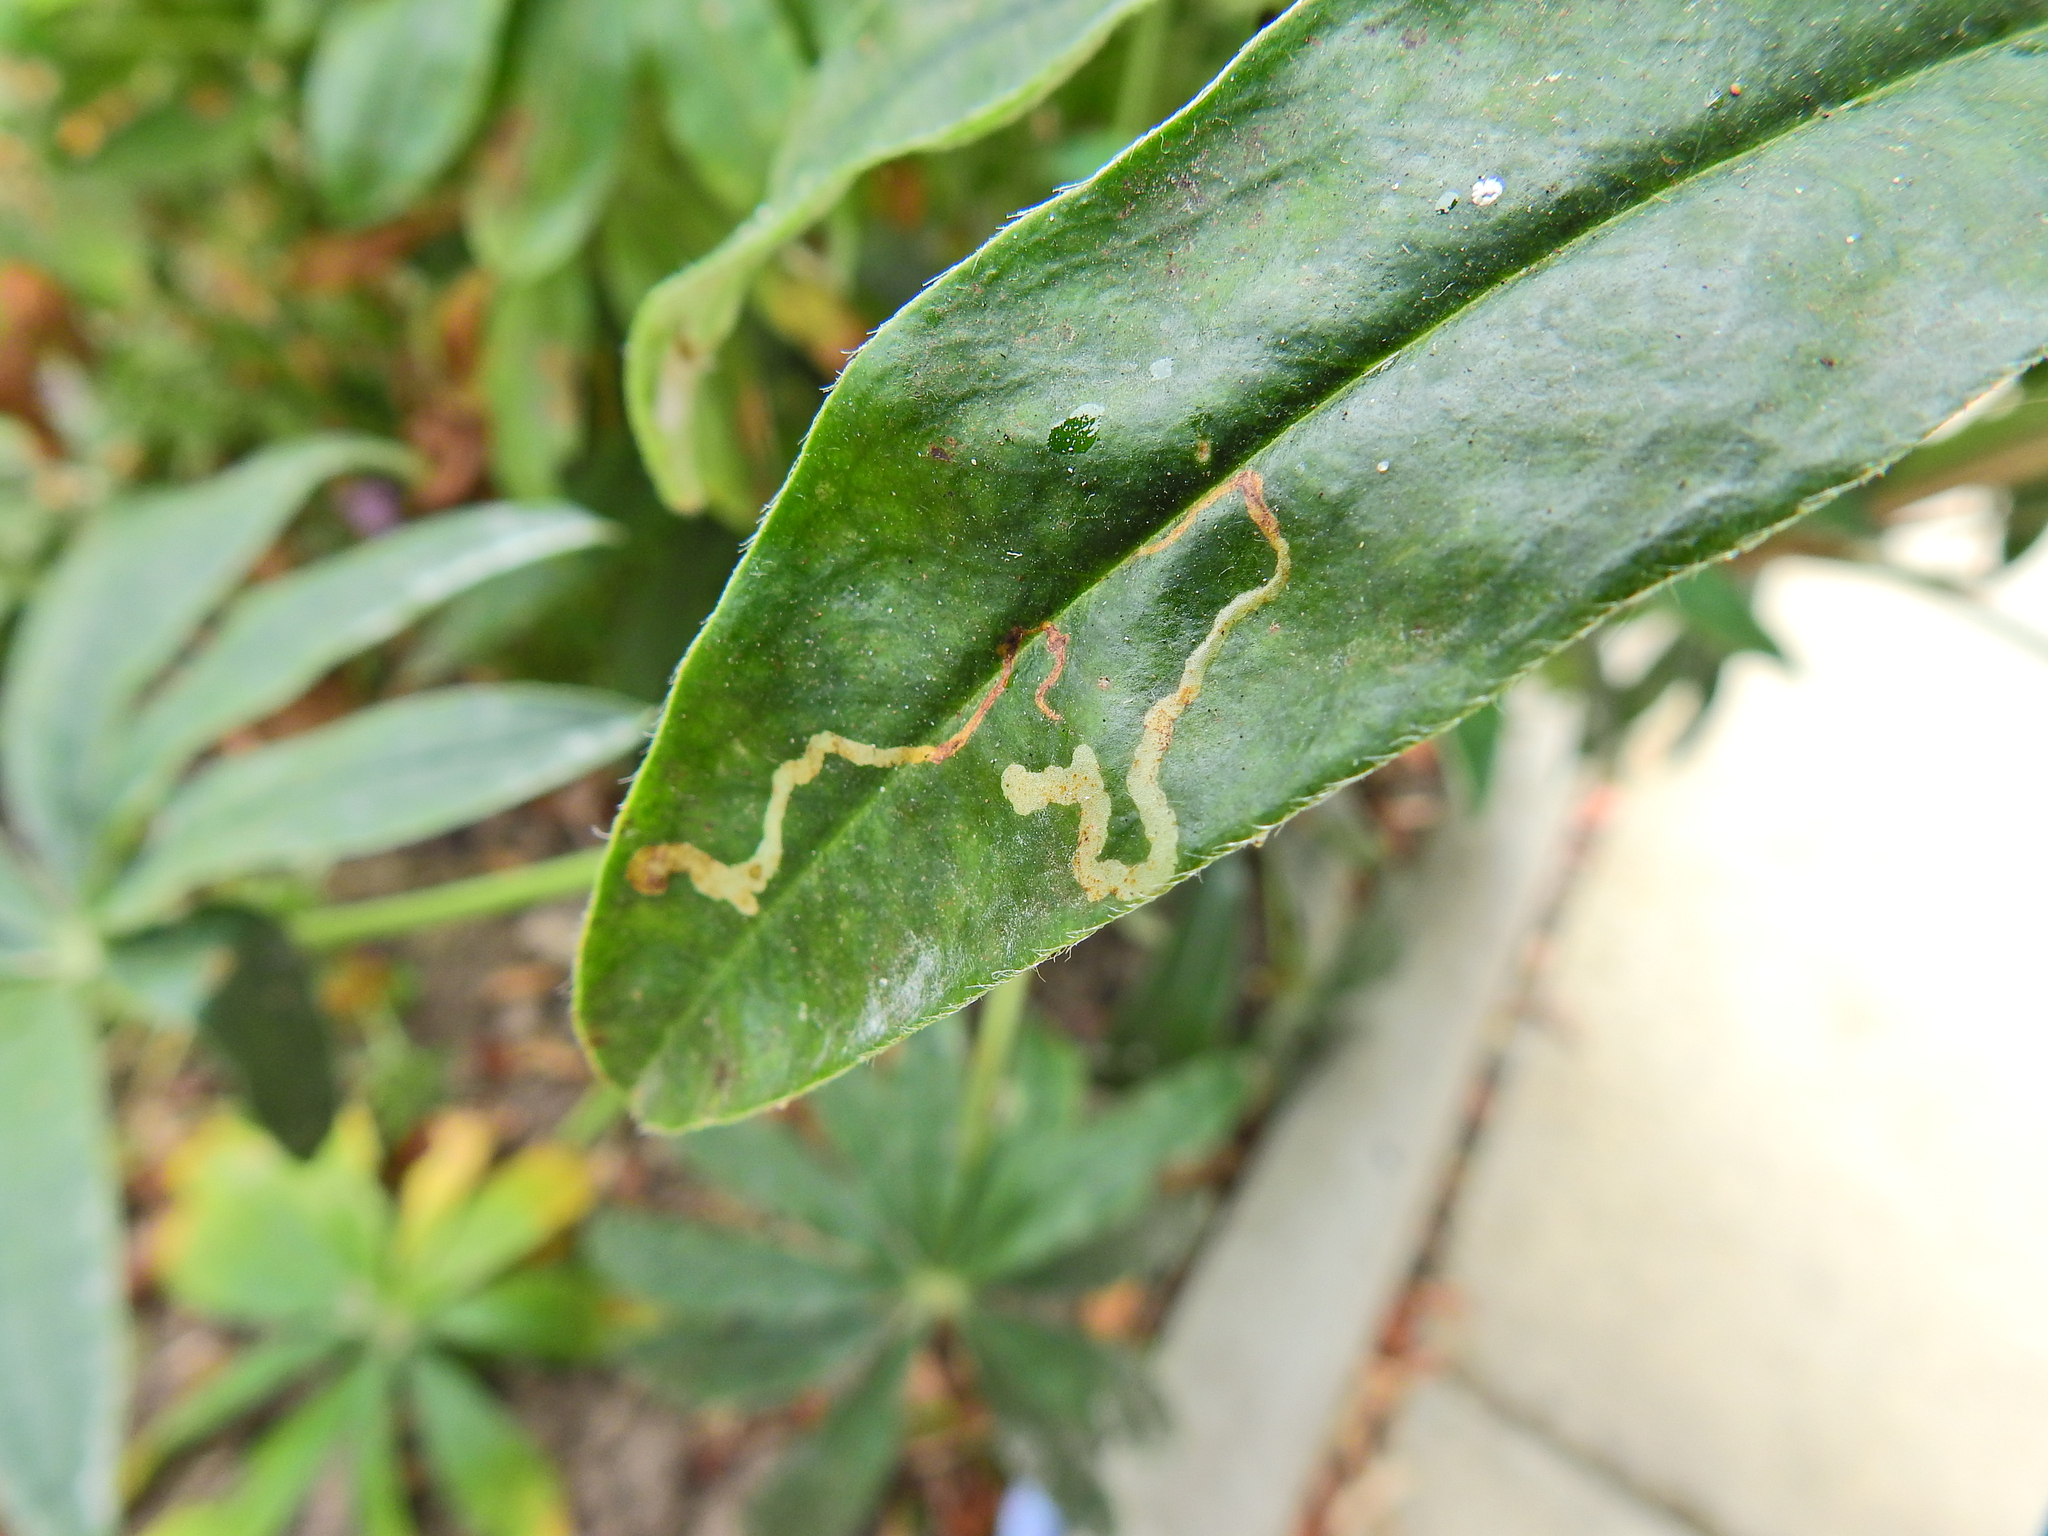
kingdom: Animalia
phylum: Arthropoda
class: Insecta
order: Diptera
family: Agromyzidae
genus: Phytomyza
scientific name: Phytomyza horticola
